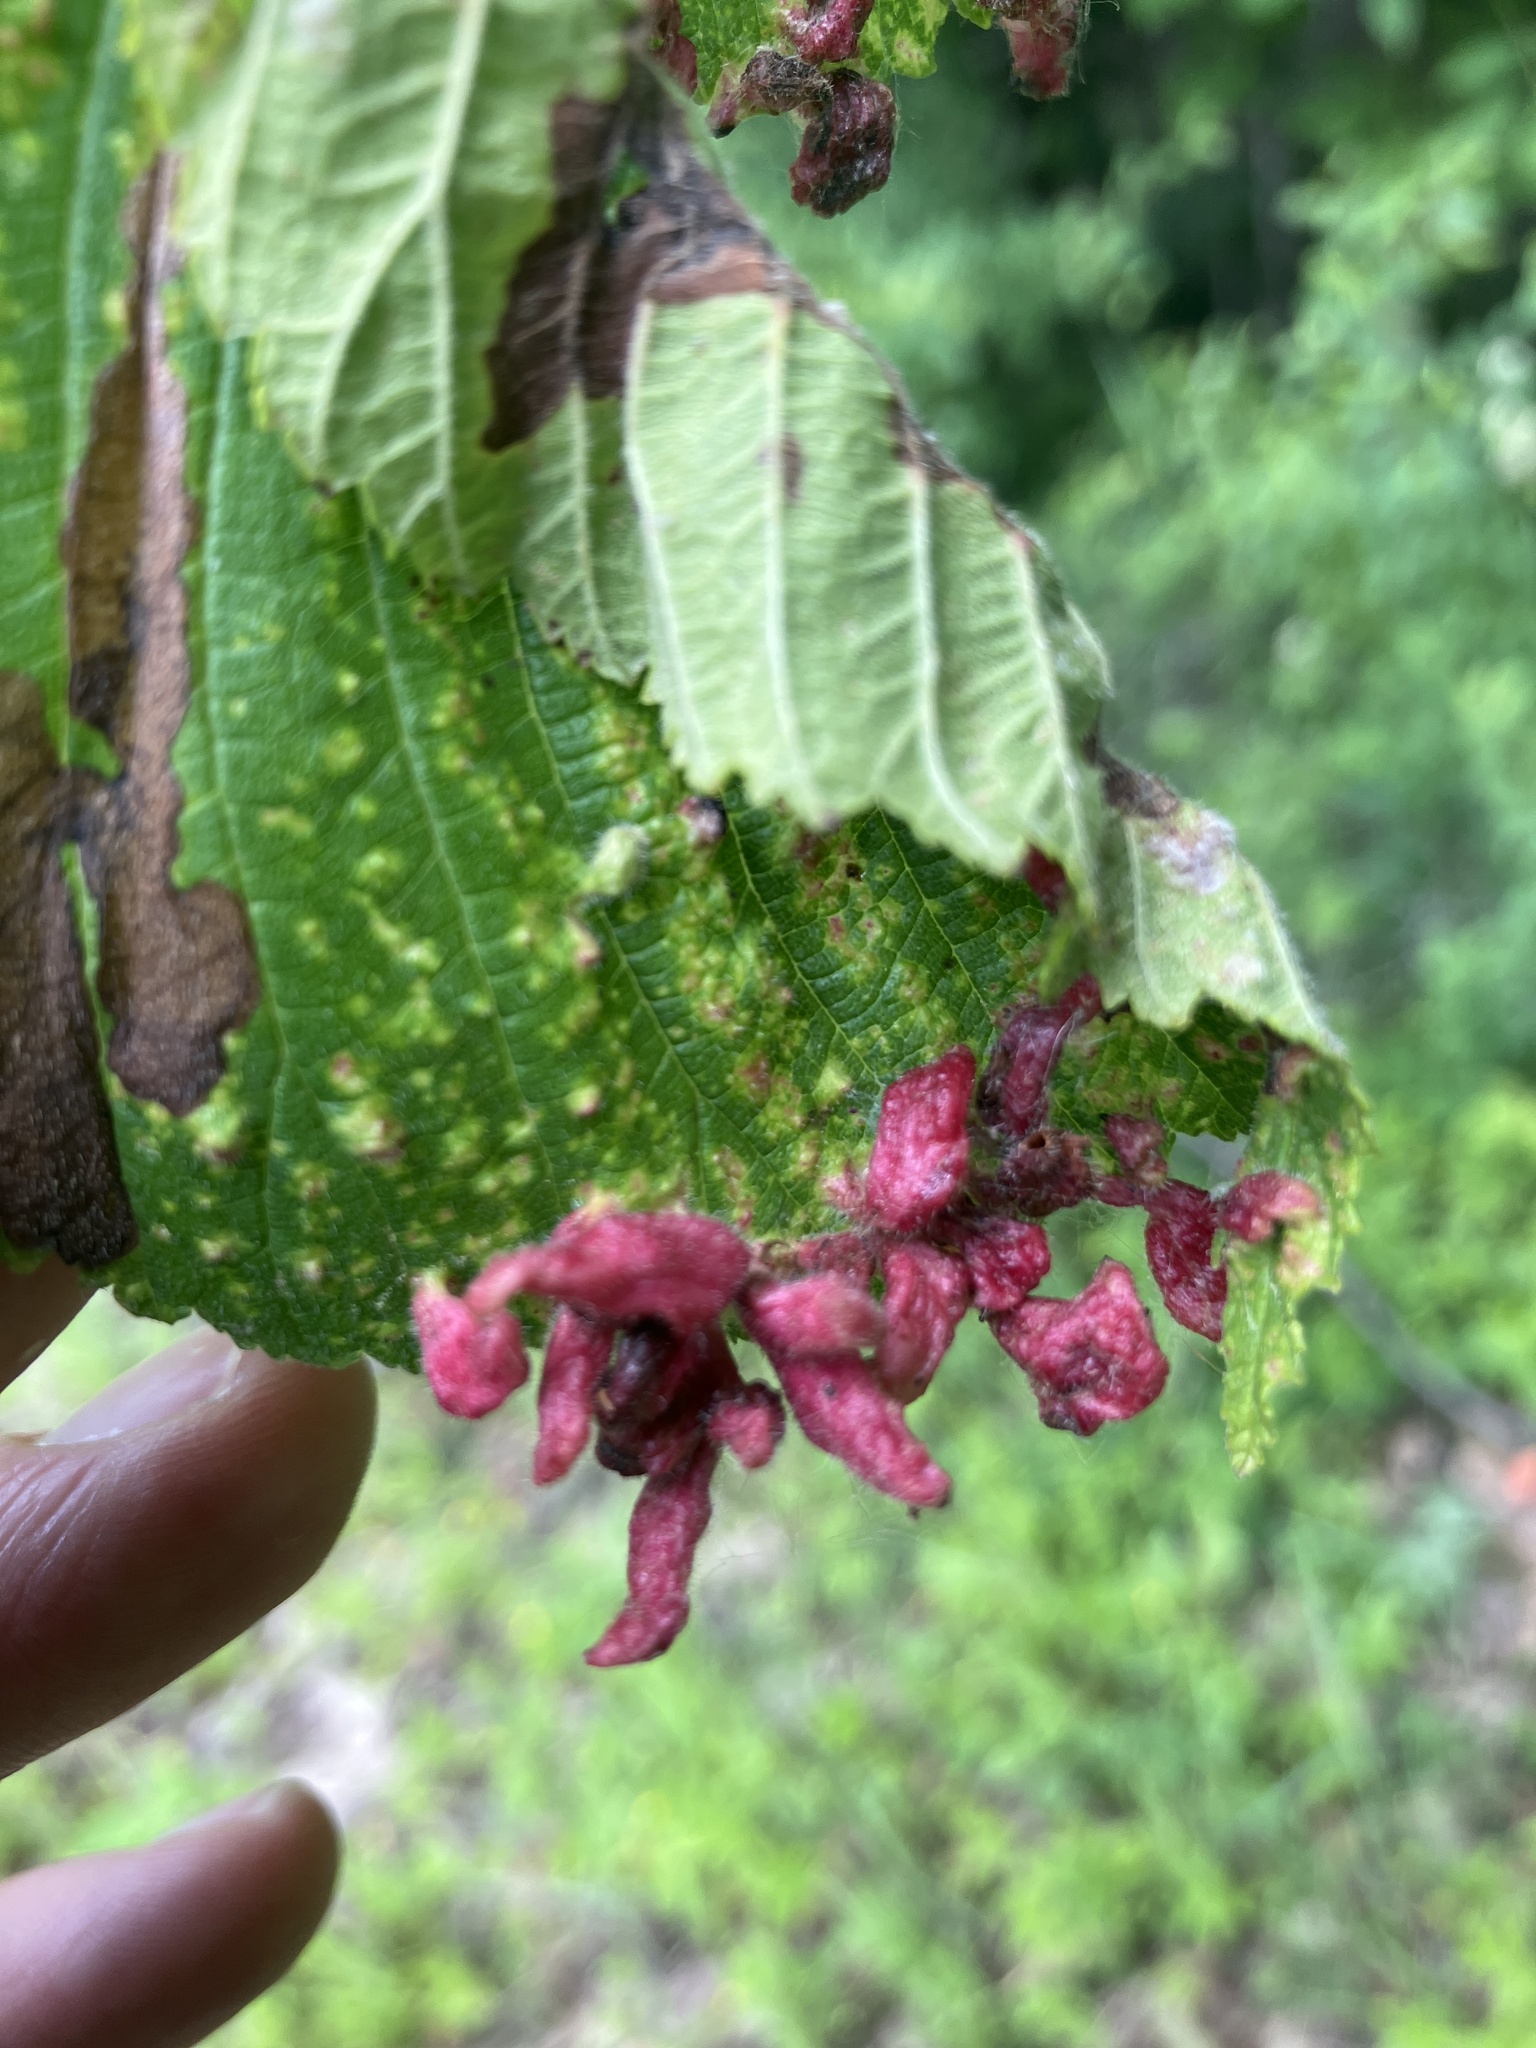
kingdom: Animalia
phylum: Arthropoda
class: Insecta
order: Hemiptera
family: Aphididae
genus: Tetraneura
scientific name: Tetraneura nigriabdominalis
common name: Aphid
